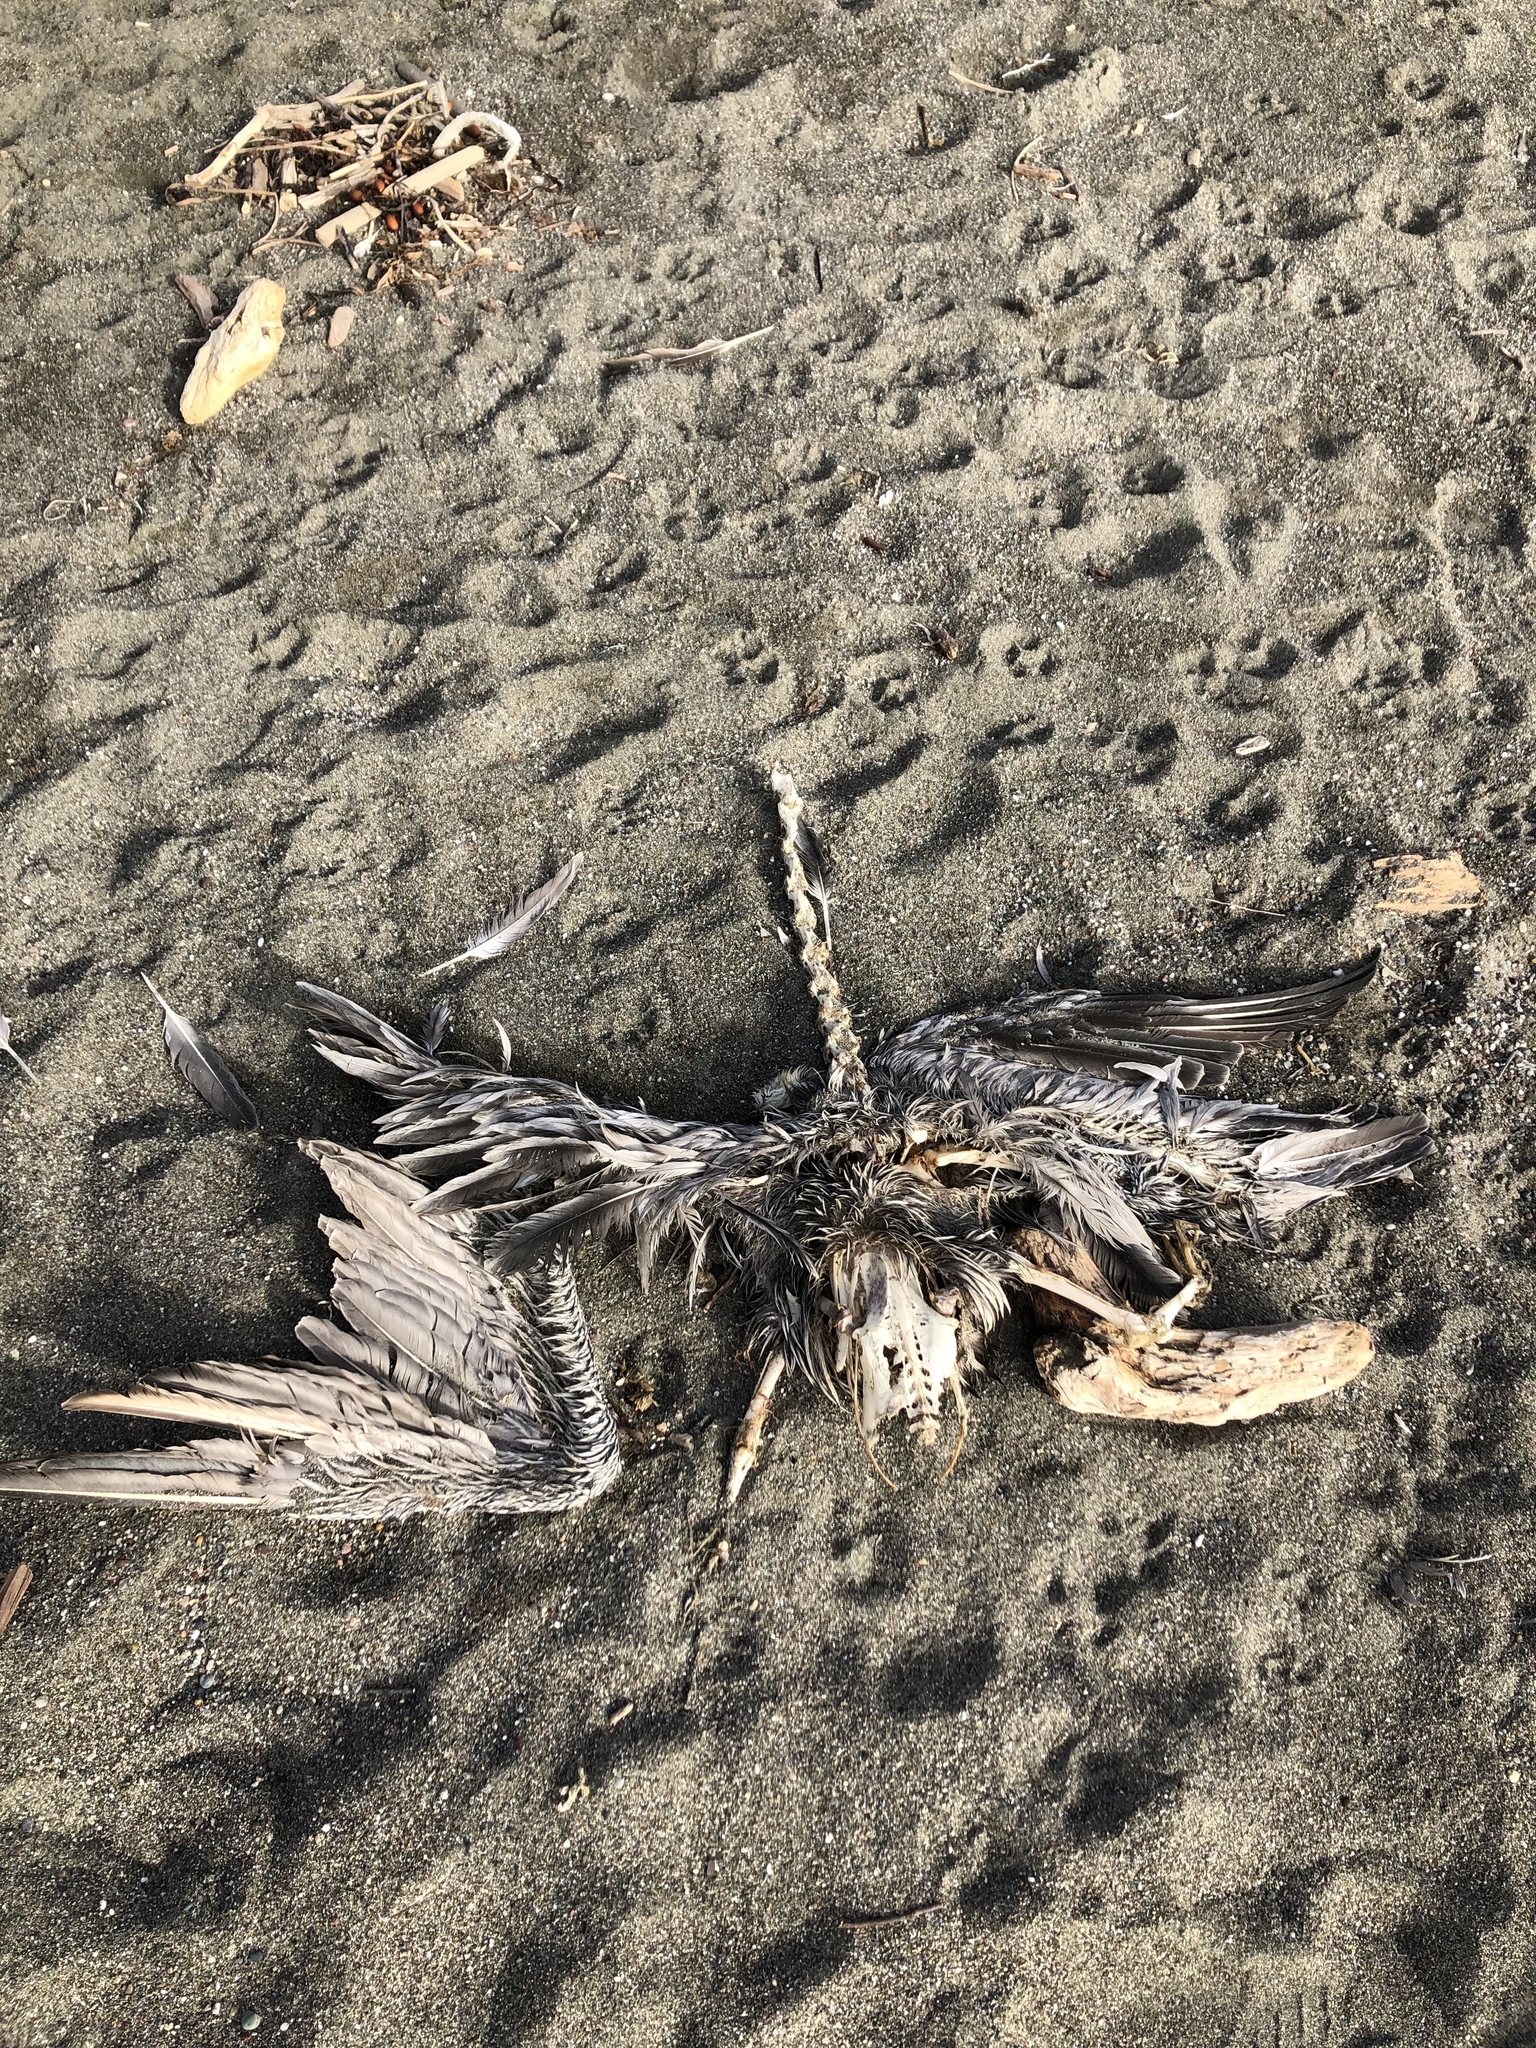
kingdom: Animalia
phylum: Chordata
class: Aves
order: Pelecaniformes
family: Pelecanidae
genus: Pelecanus
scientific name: Pelecanus occidentalis
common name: Brown pelican
